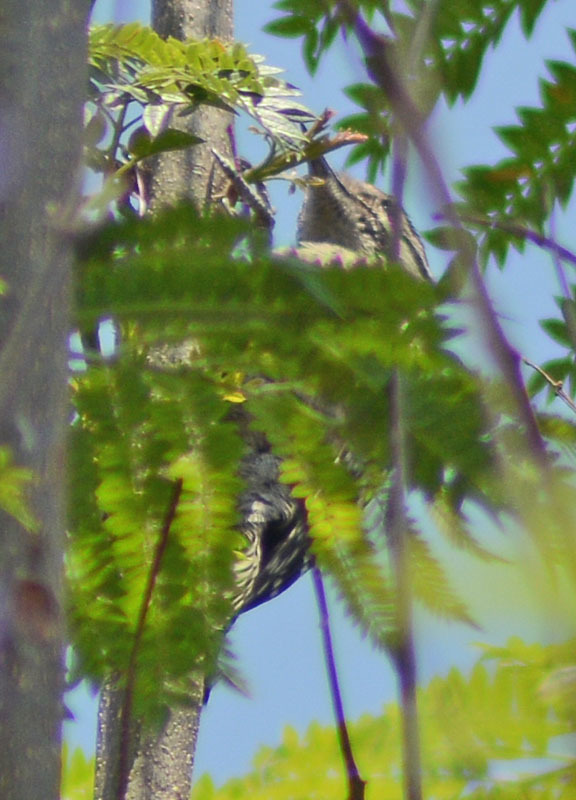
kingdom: Animalia
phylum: Chordata
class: Aves
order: Piciformes
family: Picidae
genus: Dryobates
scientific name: Dryobates scalaris
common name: Ladder-backed woodpecker
